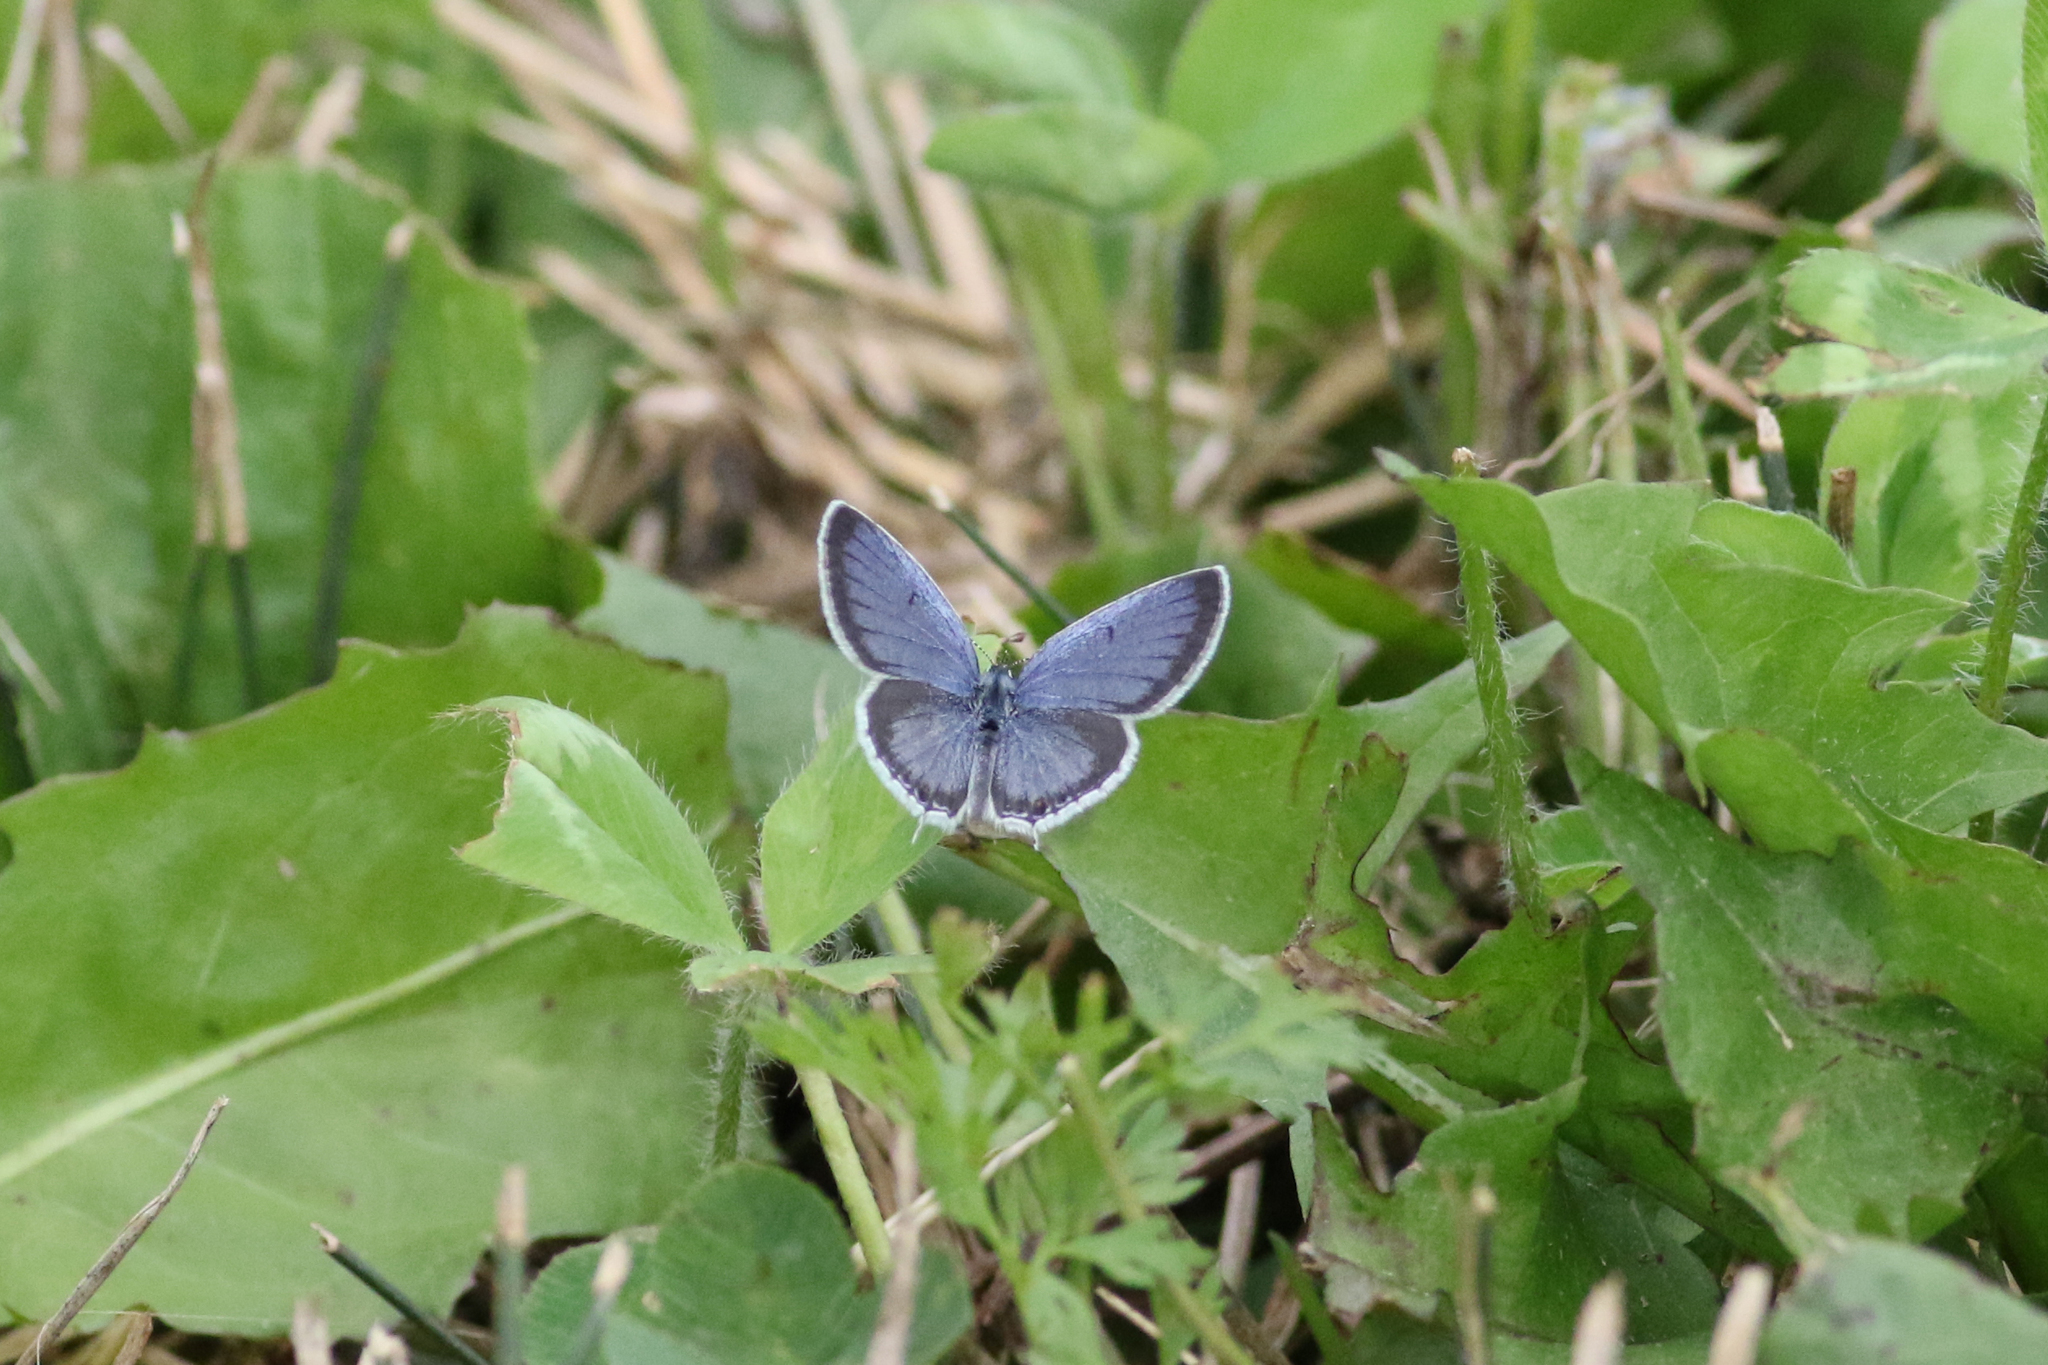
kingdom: Animalia
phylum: Arthropoda
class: Insecta
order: Lepidoptera
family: Lycaenidae
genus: Elkalyce
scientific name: Elkalyce comyntas
